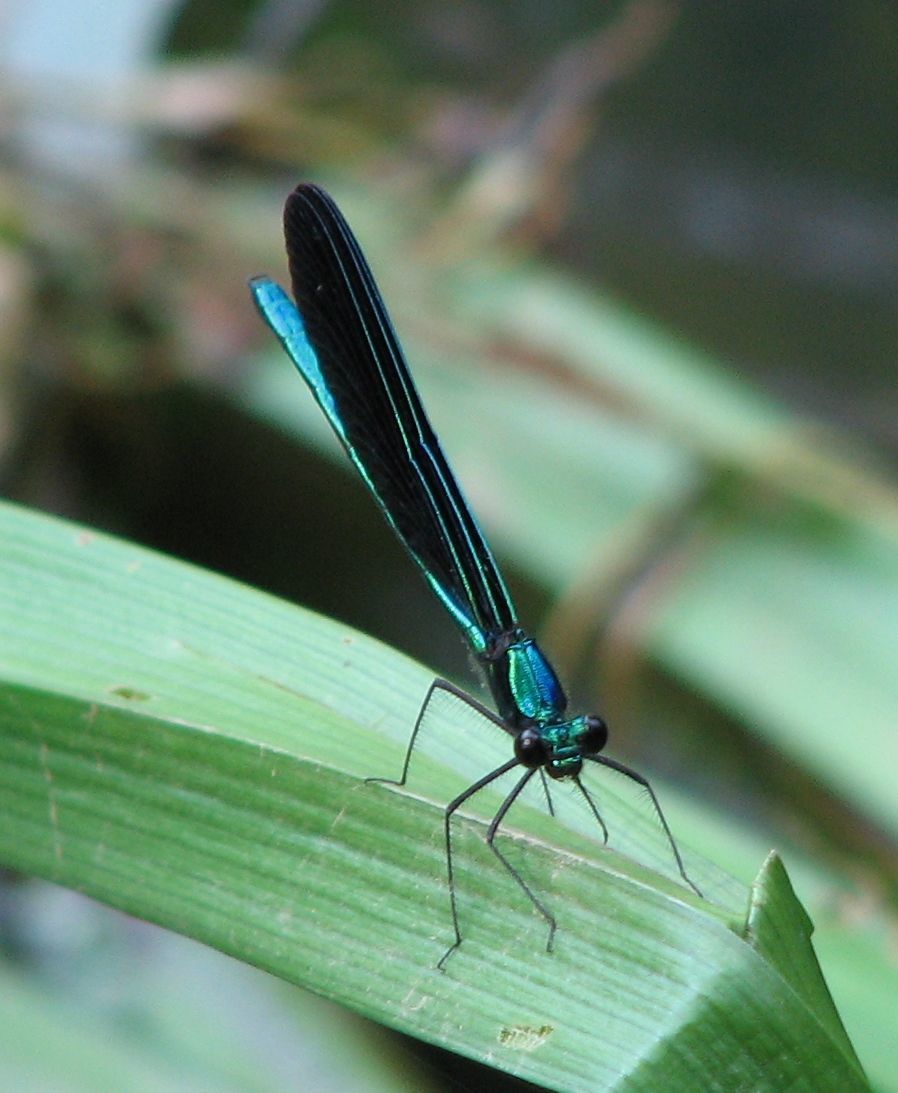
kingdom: Animalia
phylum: Arthropoda
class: Insecta
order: Odonata
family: Calopterygidae
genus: Calopteryx
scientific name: Calopteryx maculata
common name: Ebony jewelwing
